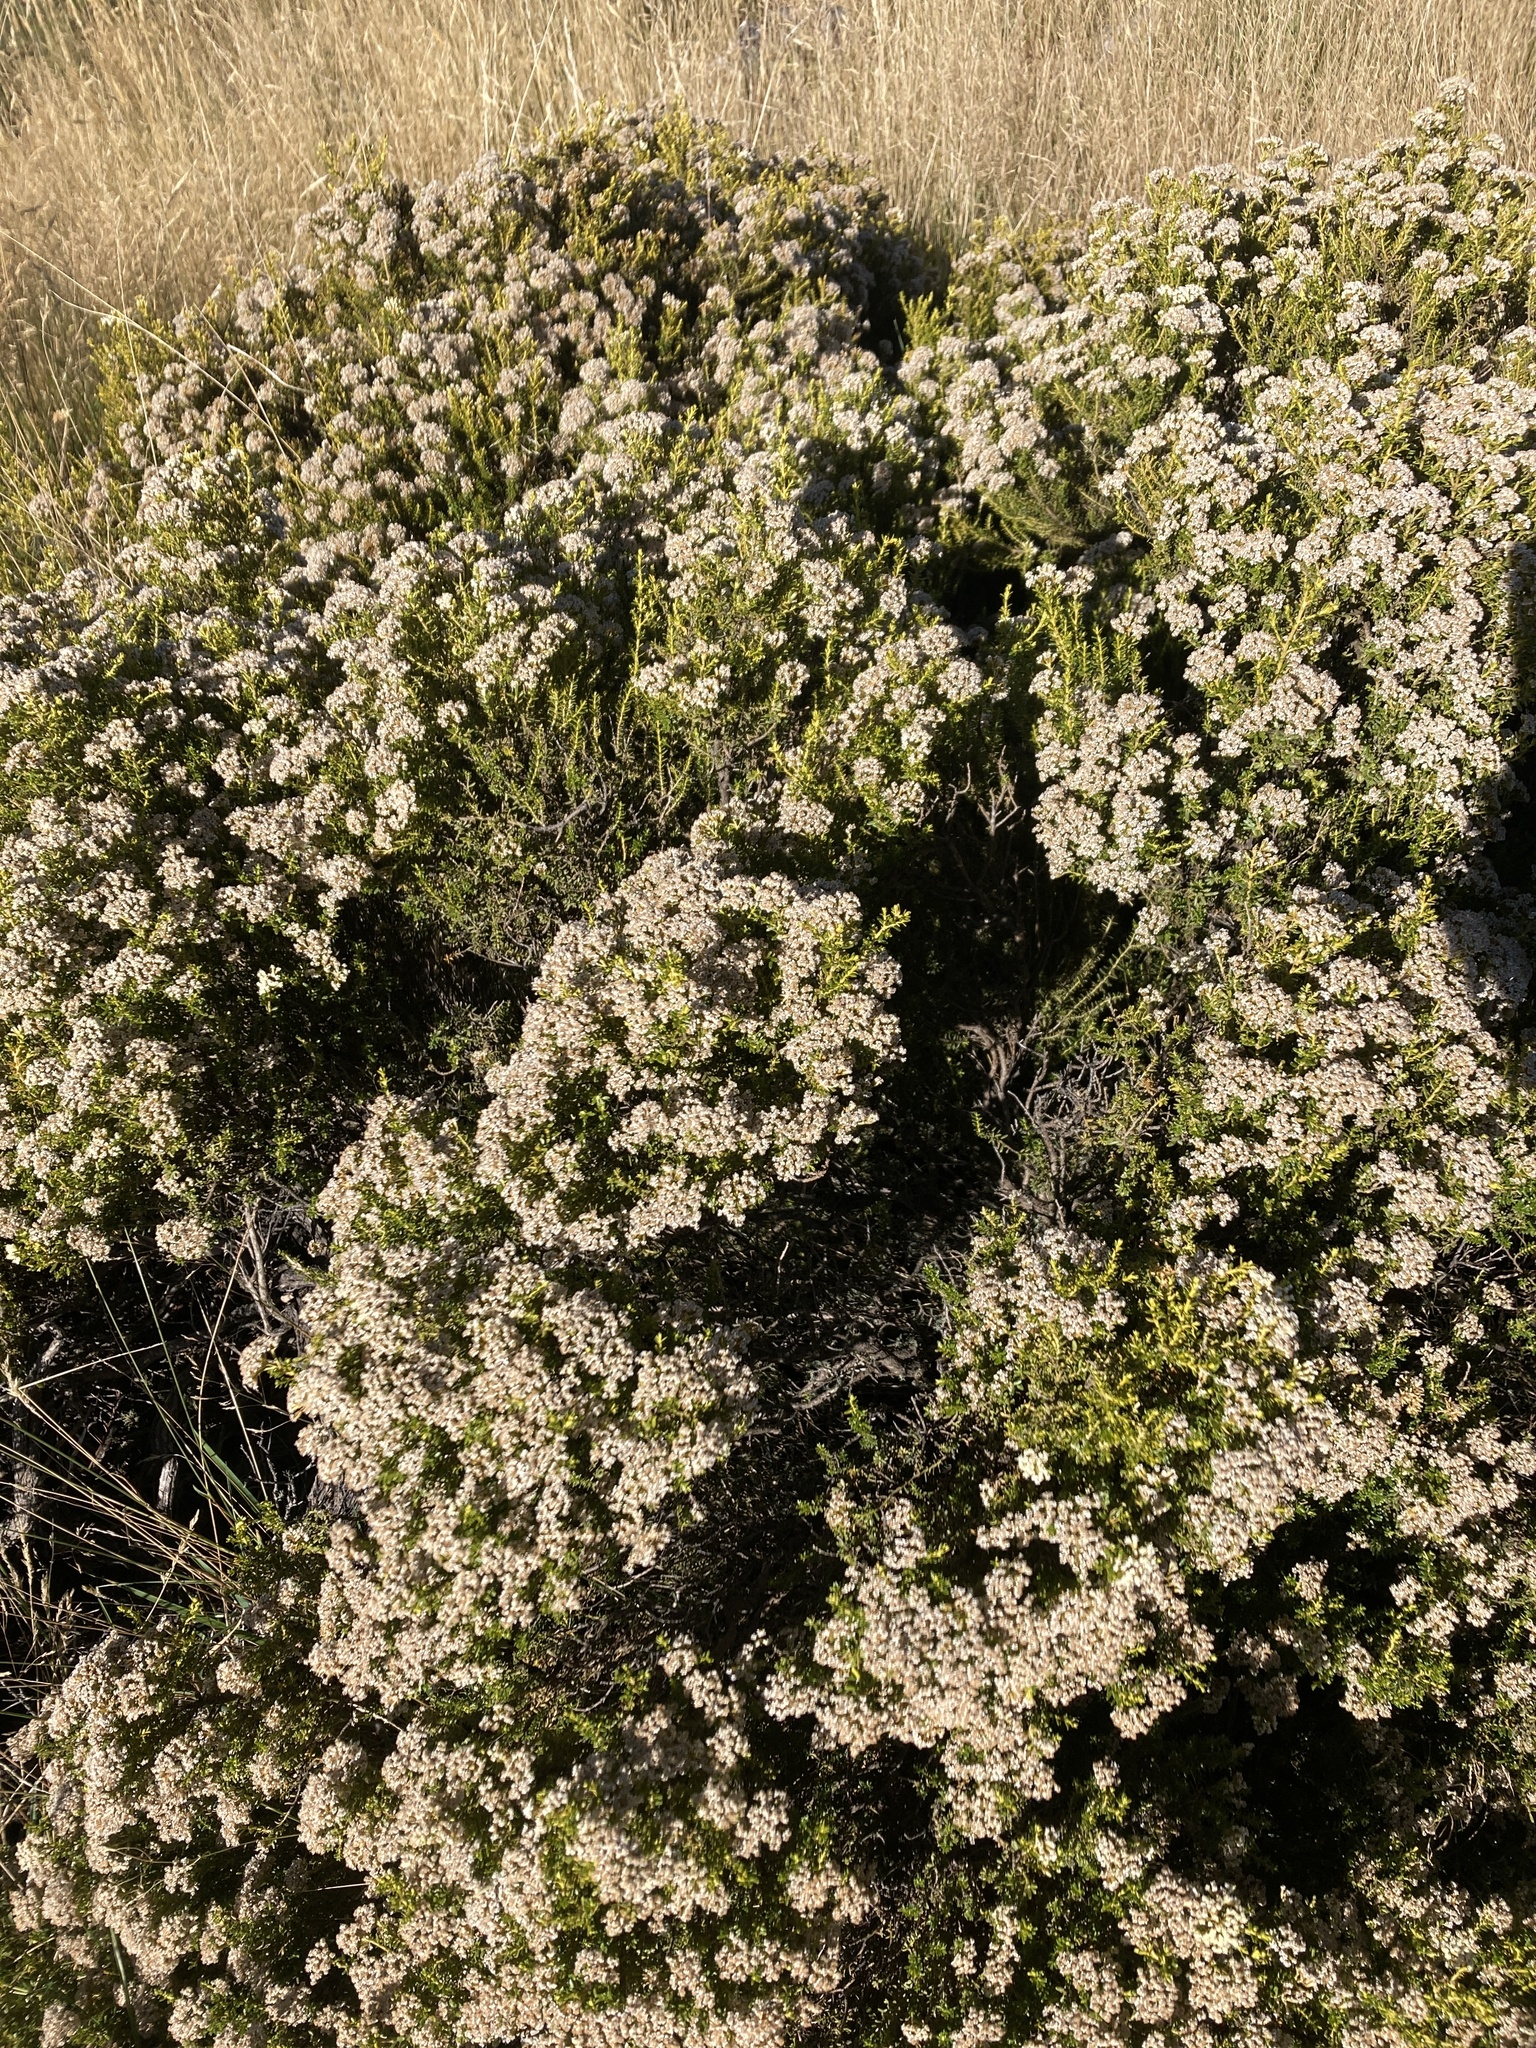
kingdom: Plantae
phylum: Tracheophyta
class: Magnoliopsida
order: Asterales
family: Asteraceae
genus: Ozothamnus
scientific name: Ozothamnus leptophyllus
